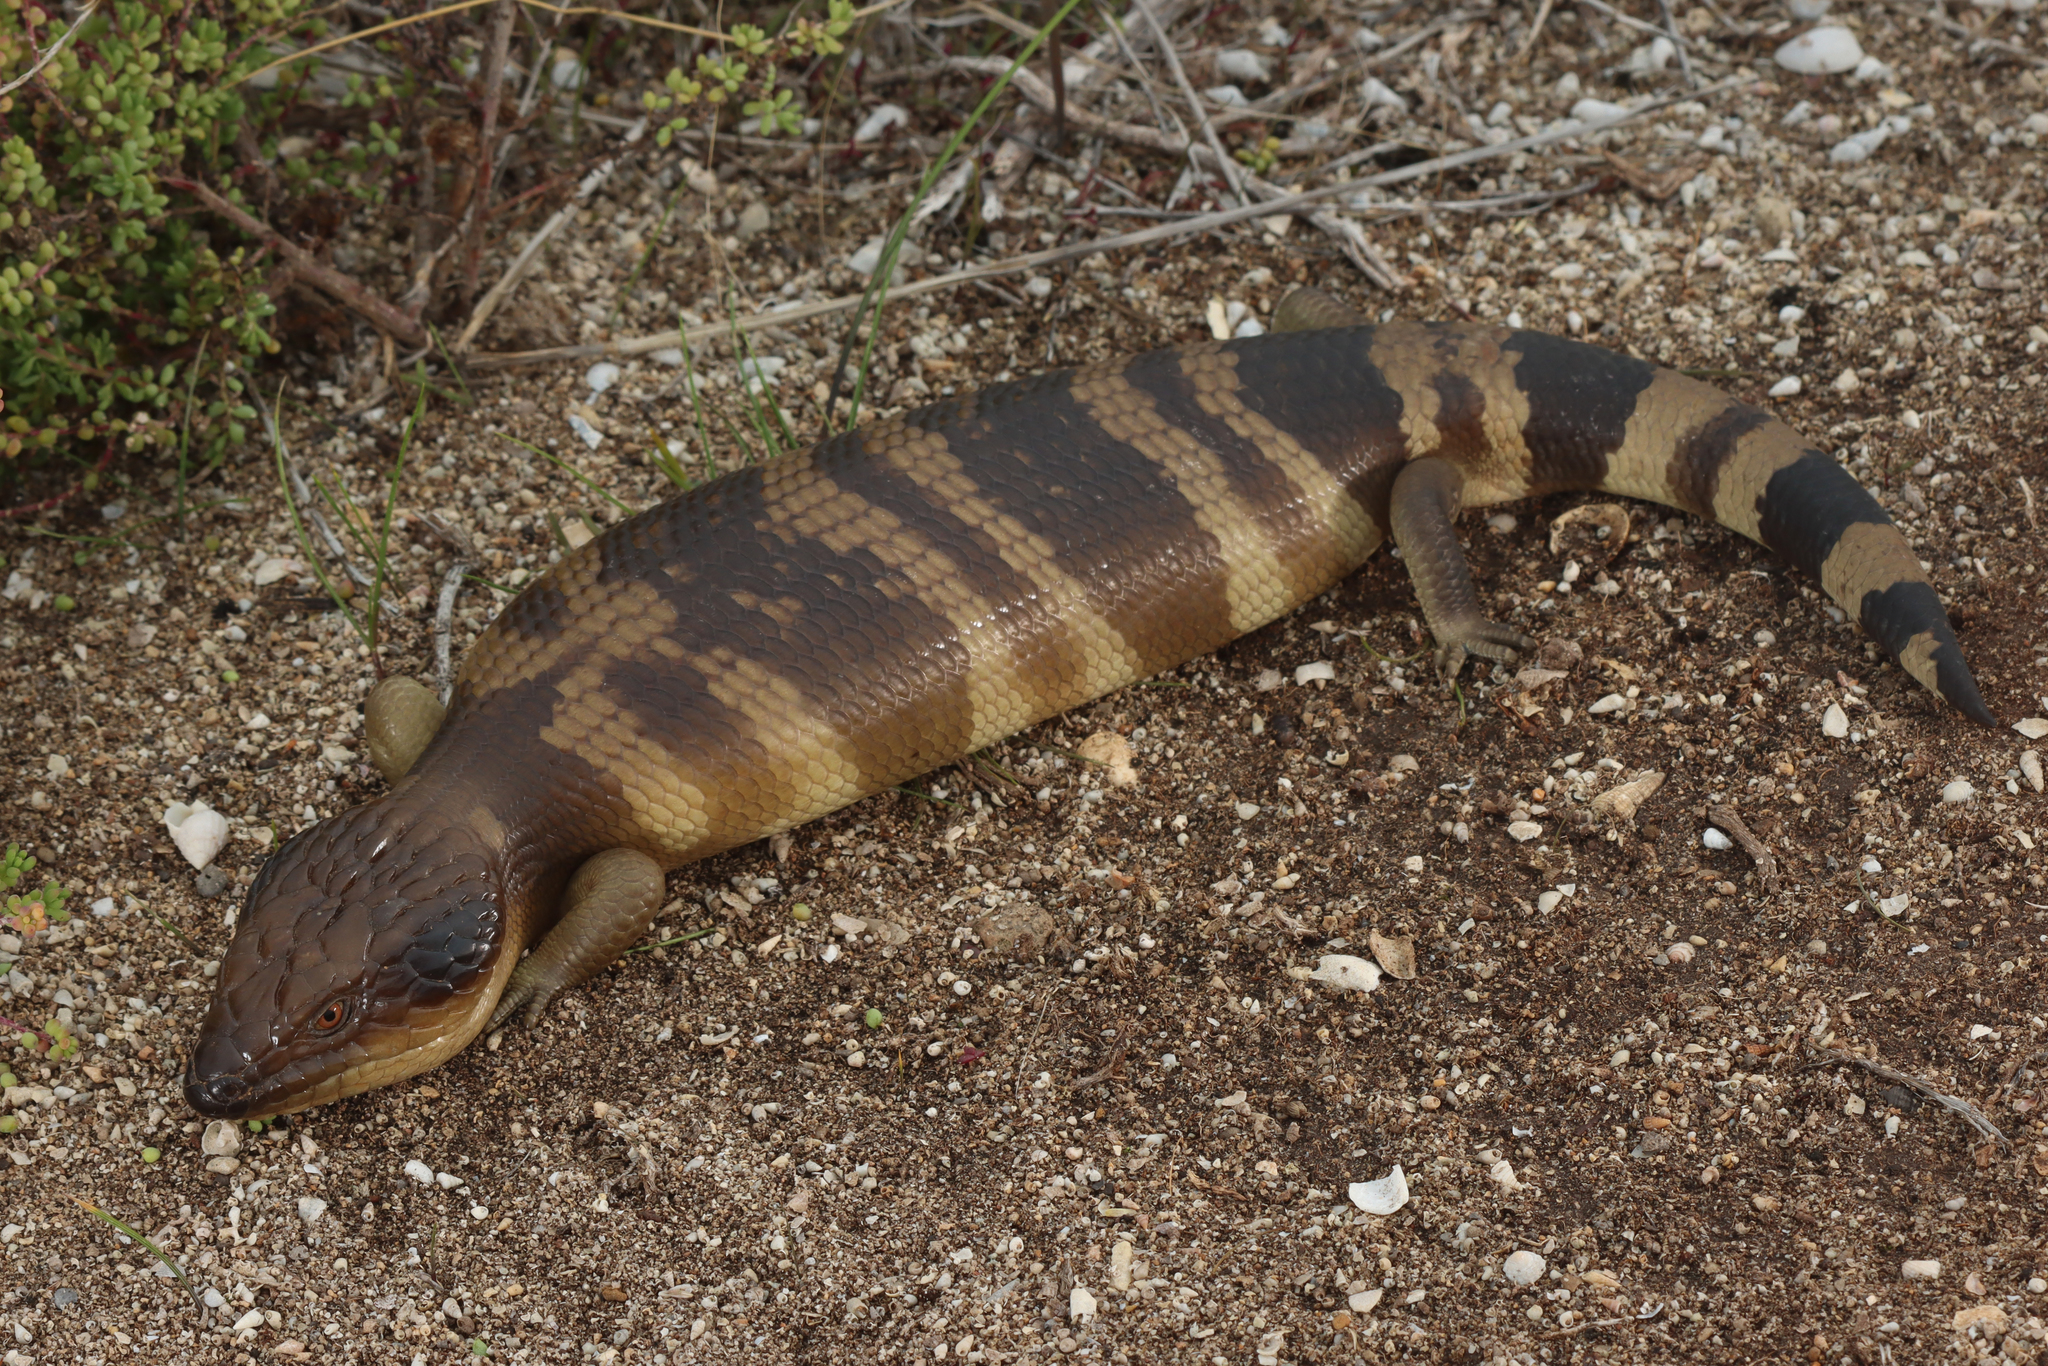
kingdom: Animalia
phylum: Chordata
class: Squamata
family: Scincidae
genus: Tiliqua
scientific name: Tiliqua occipitalis
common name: Western blue-tongued lizard
